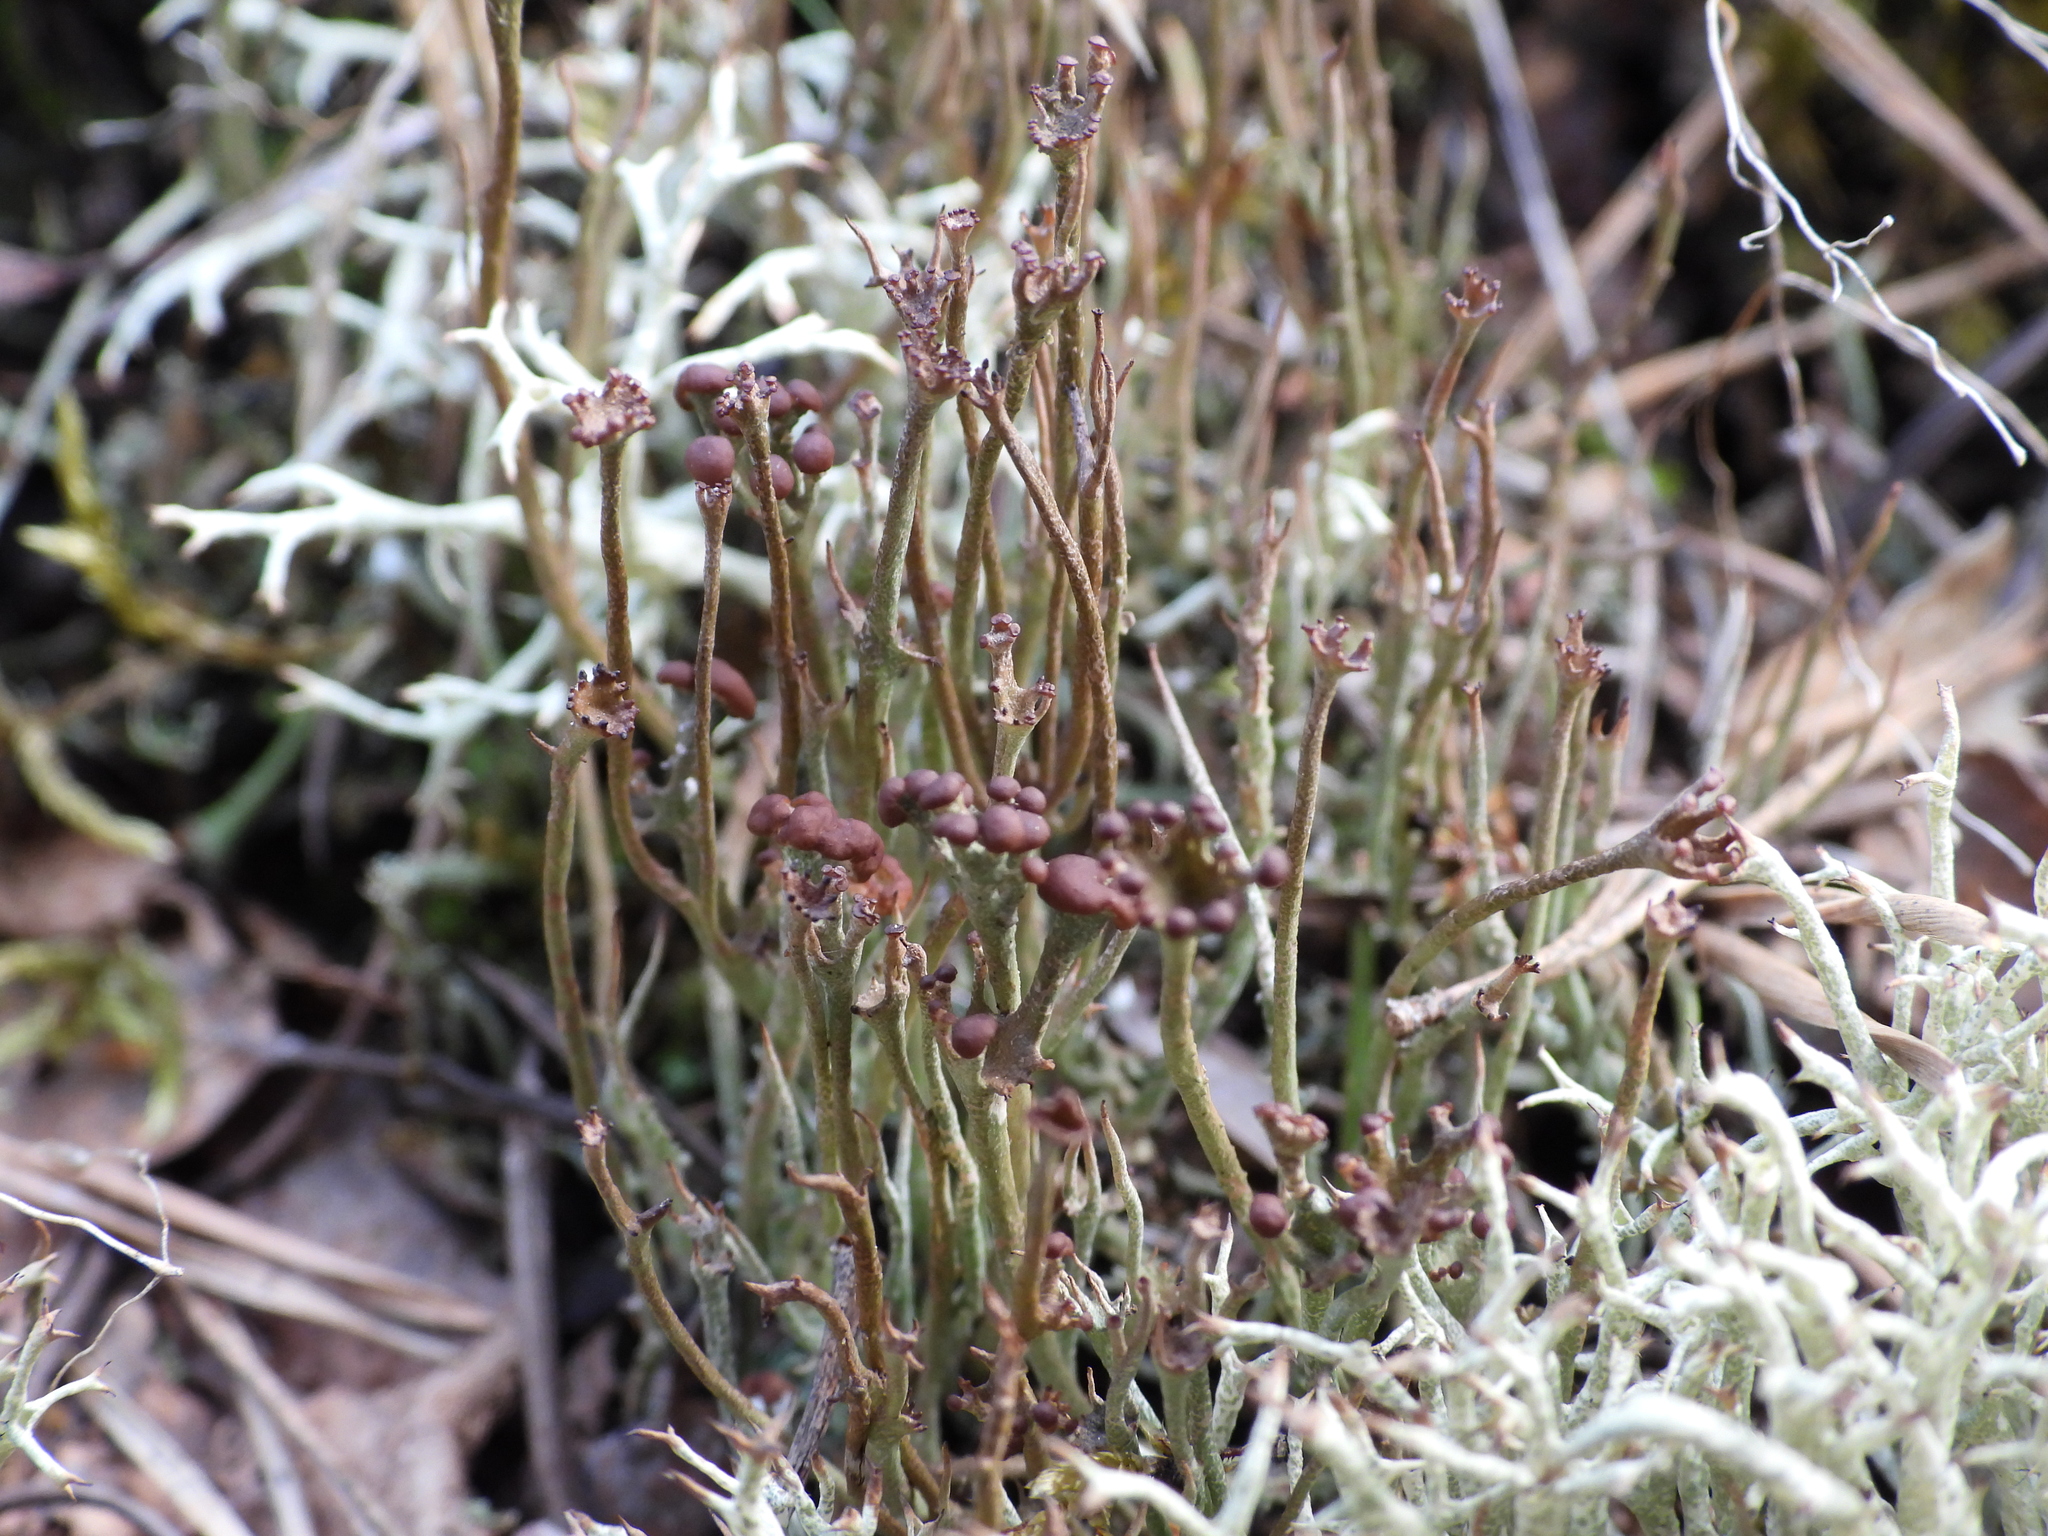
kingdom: Fungi
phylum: Ascomycota
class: Lecanoromycetes
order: Lecanorales
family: Cladoniaceae
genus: Cladonia
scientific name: Cladonia gracilis
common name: Smooth clad lichen
